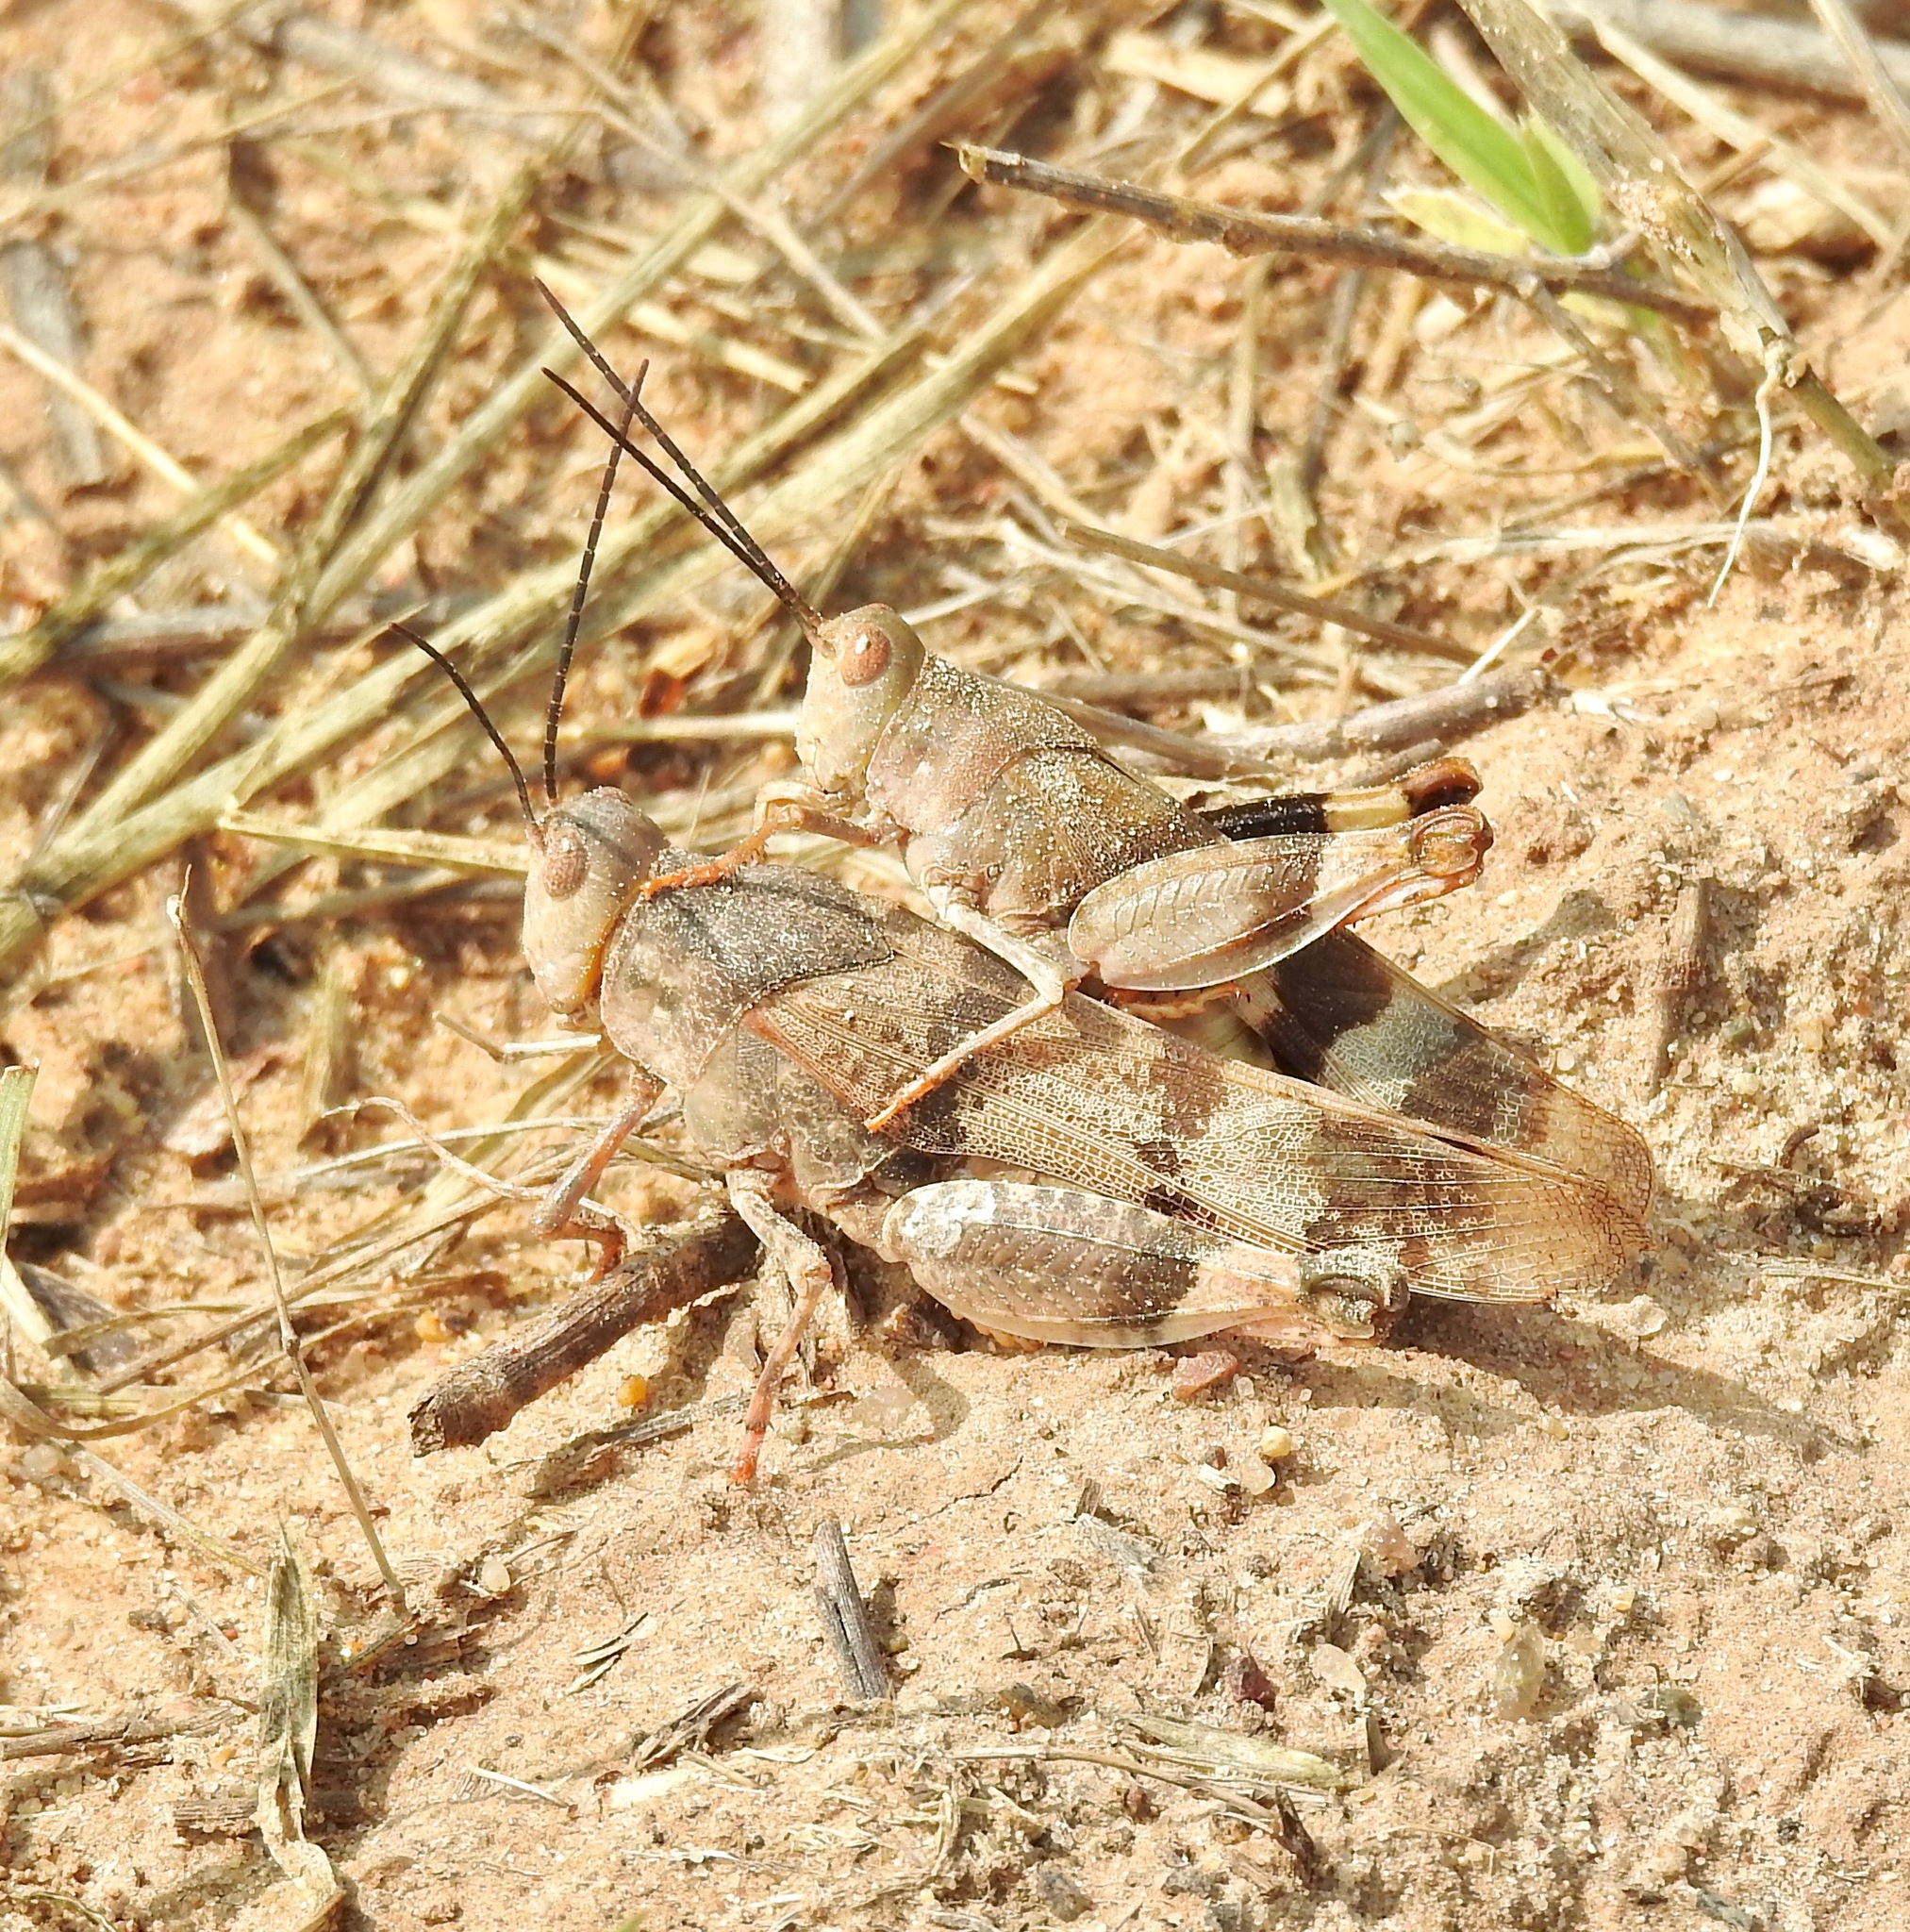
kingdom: Animalia
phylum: Arthropoda
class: Insecta
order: Orthoptera
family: Acrididae
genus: Hadrotettix
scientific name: Hadrotettix trifasciatus
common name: Threebanded grasshopper
